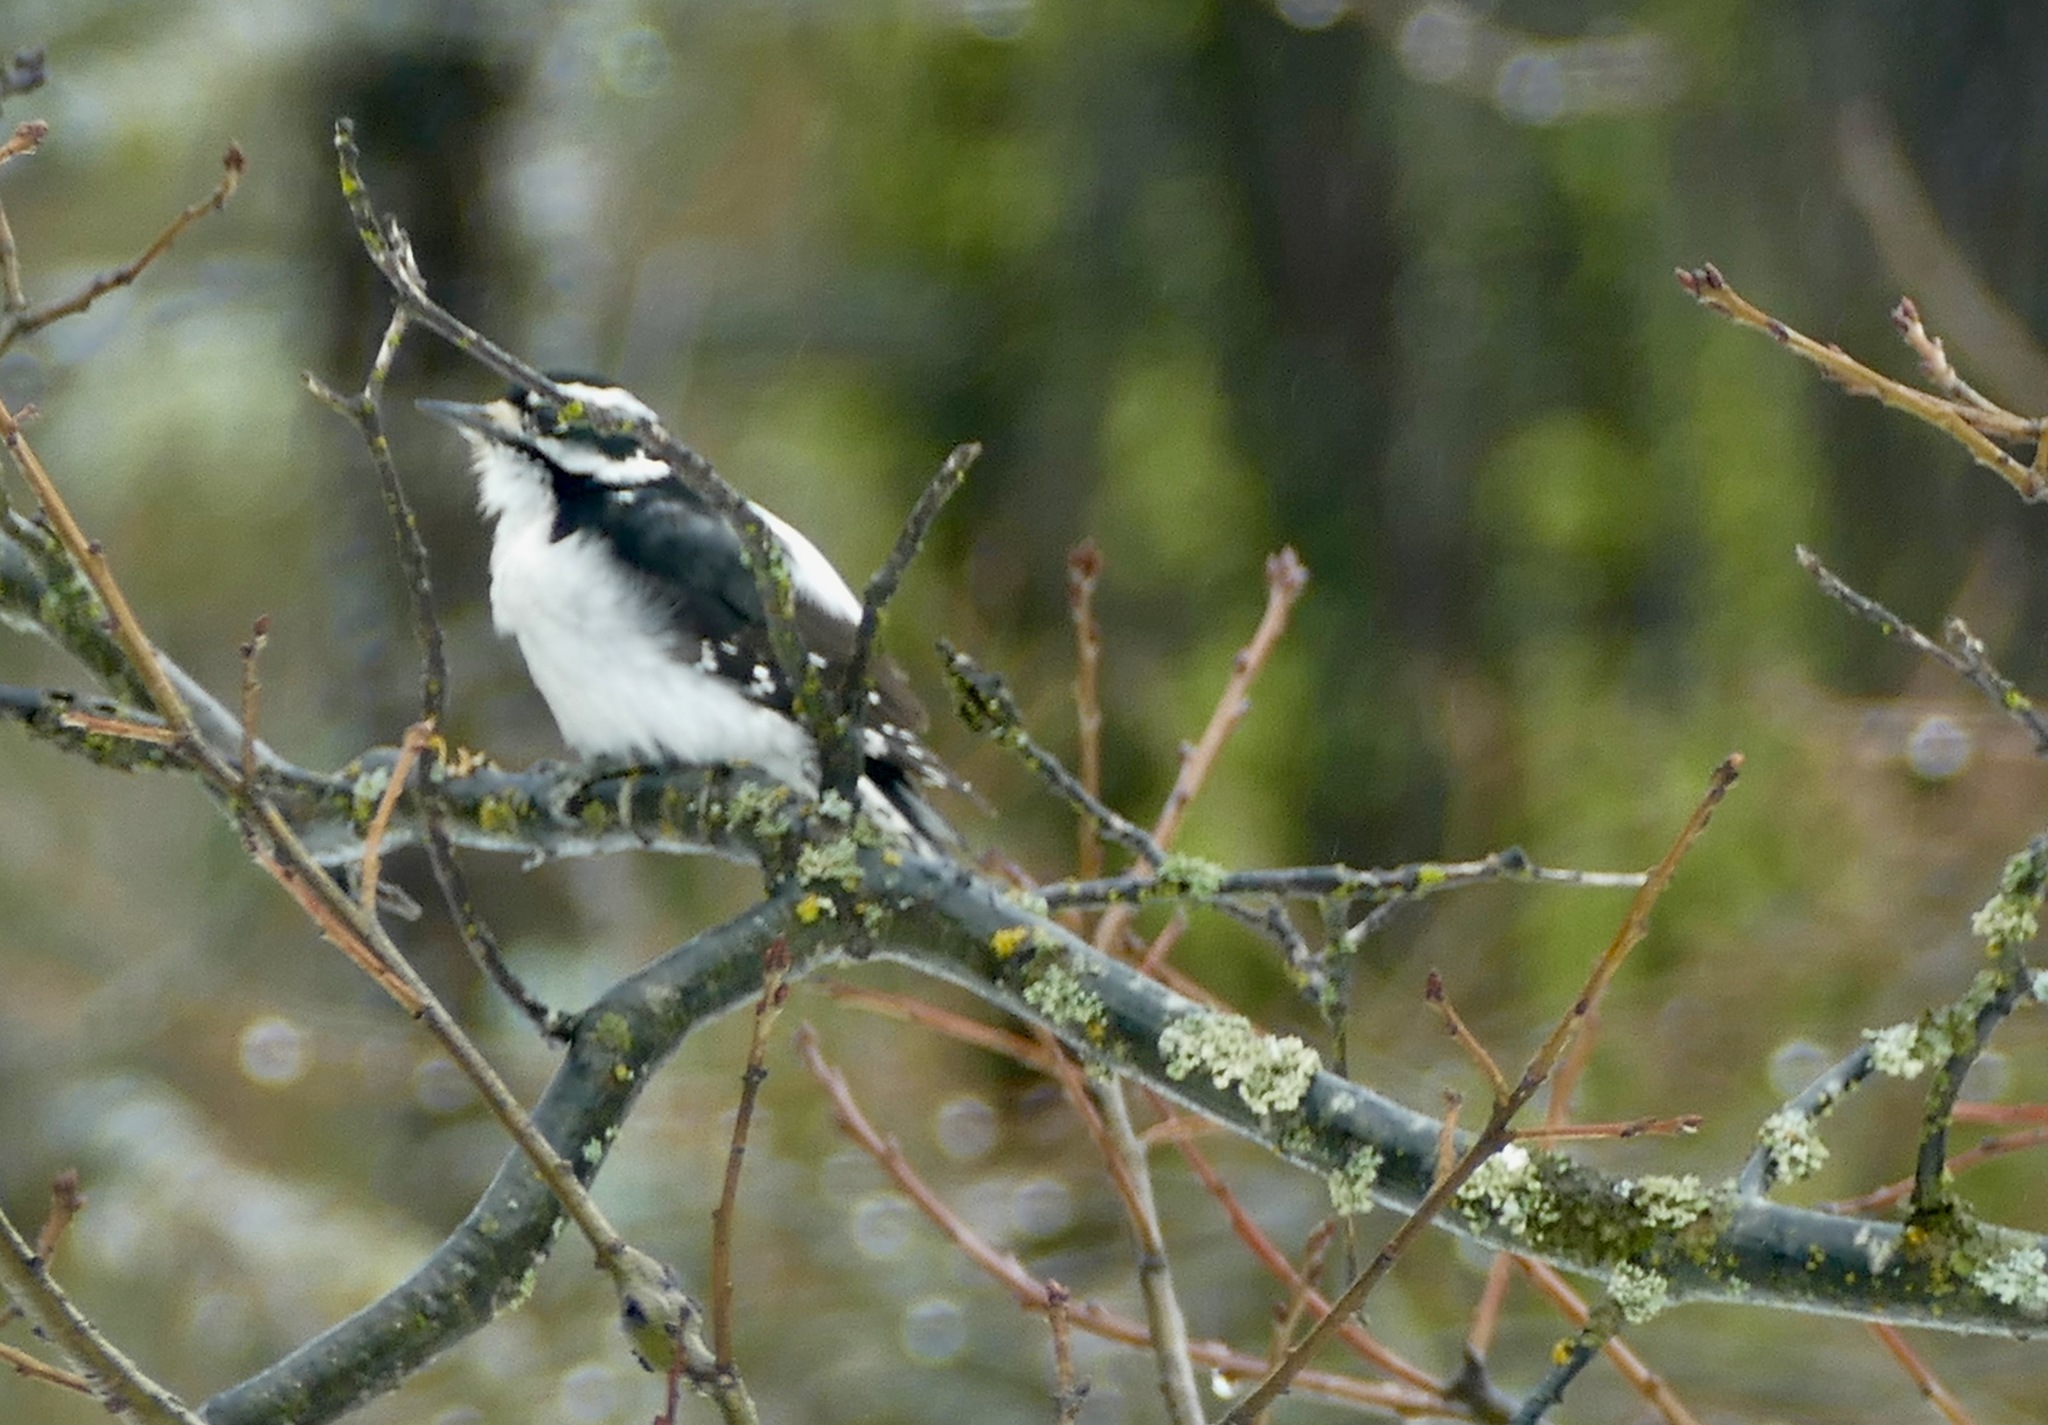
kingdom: Animalia
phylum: Chordata
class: Aves
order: Piciformes
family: Picidae
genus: Leuconotopicus
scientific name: Leuconotopicus villosus
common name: Hairy woodpecker
